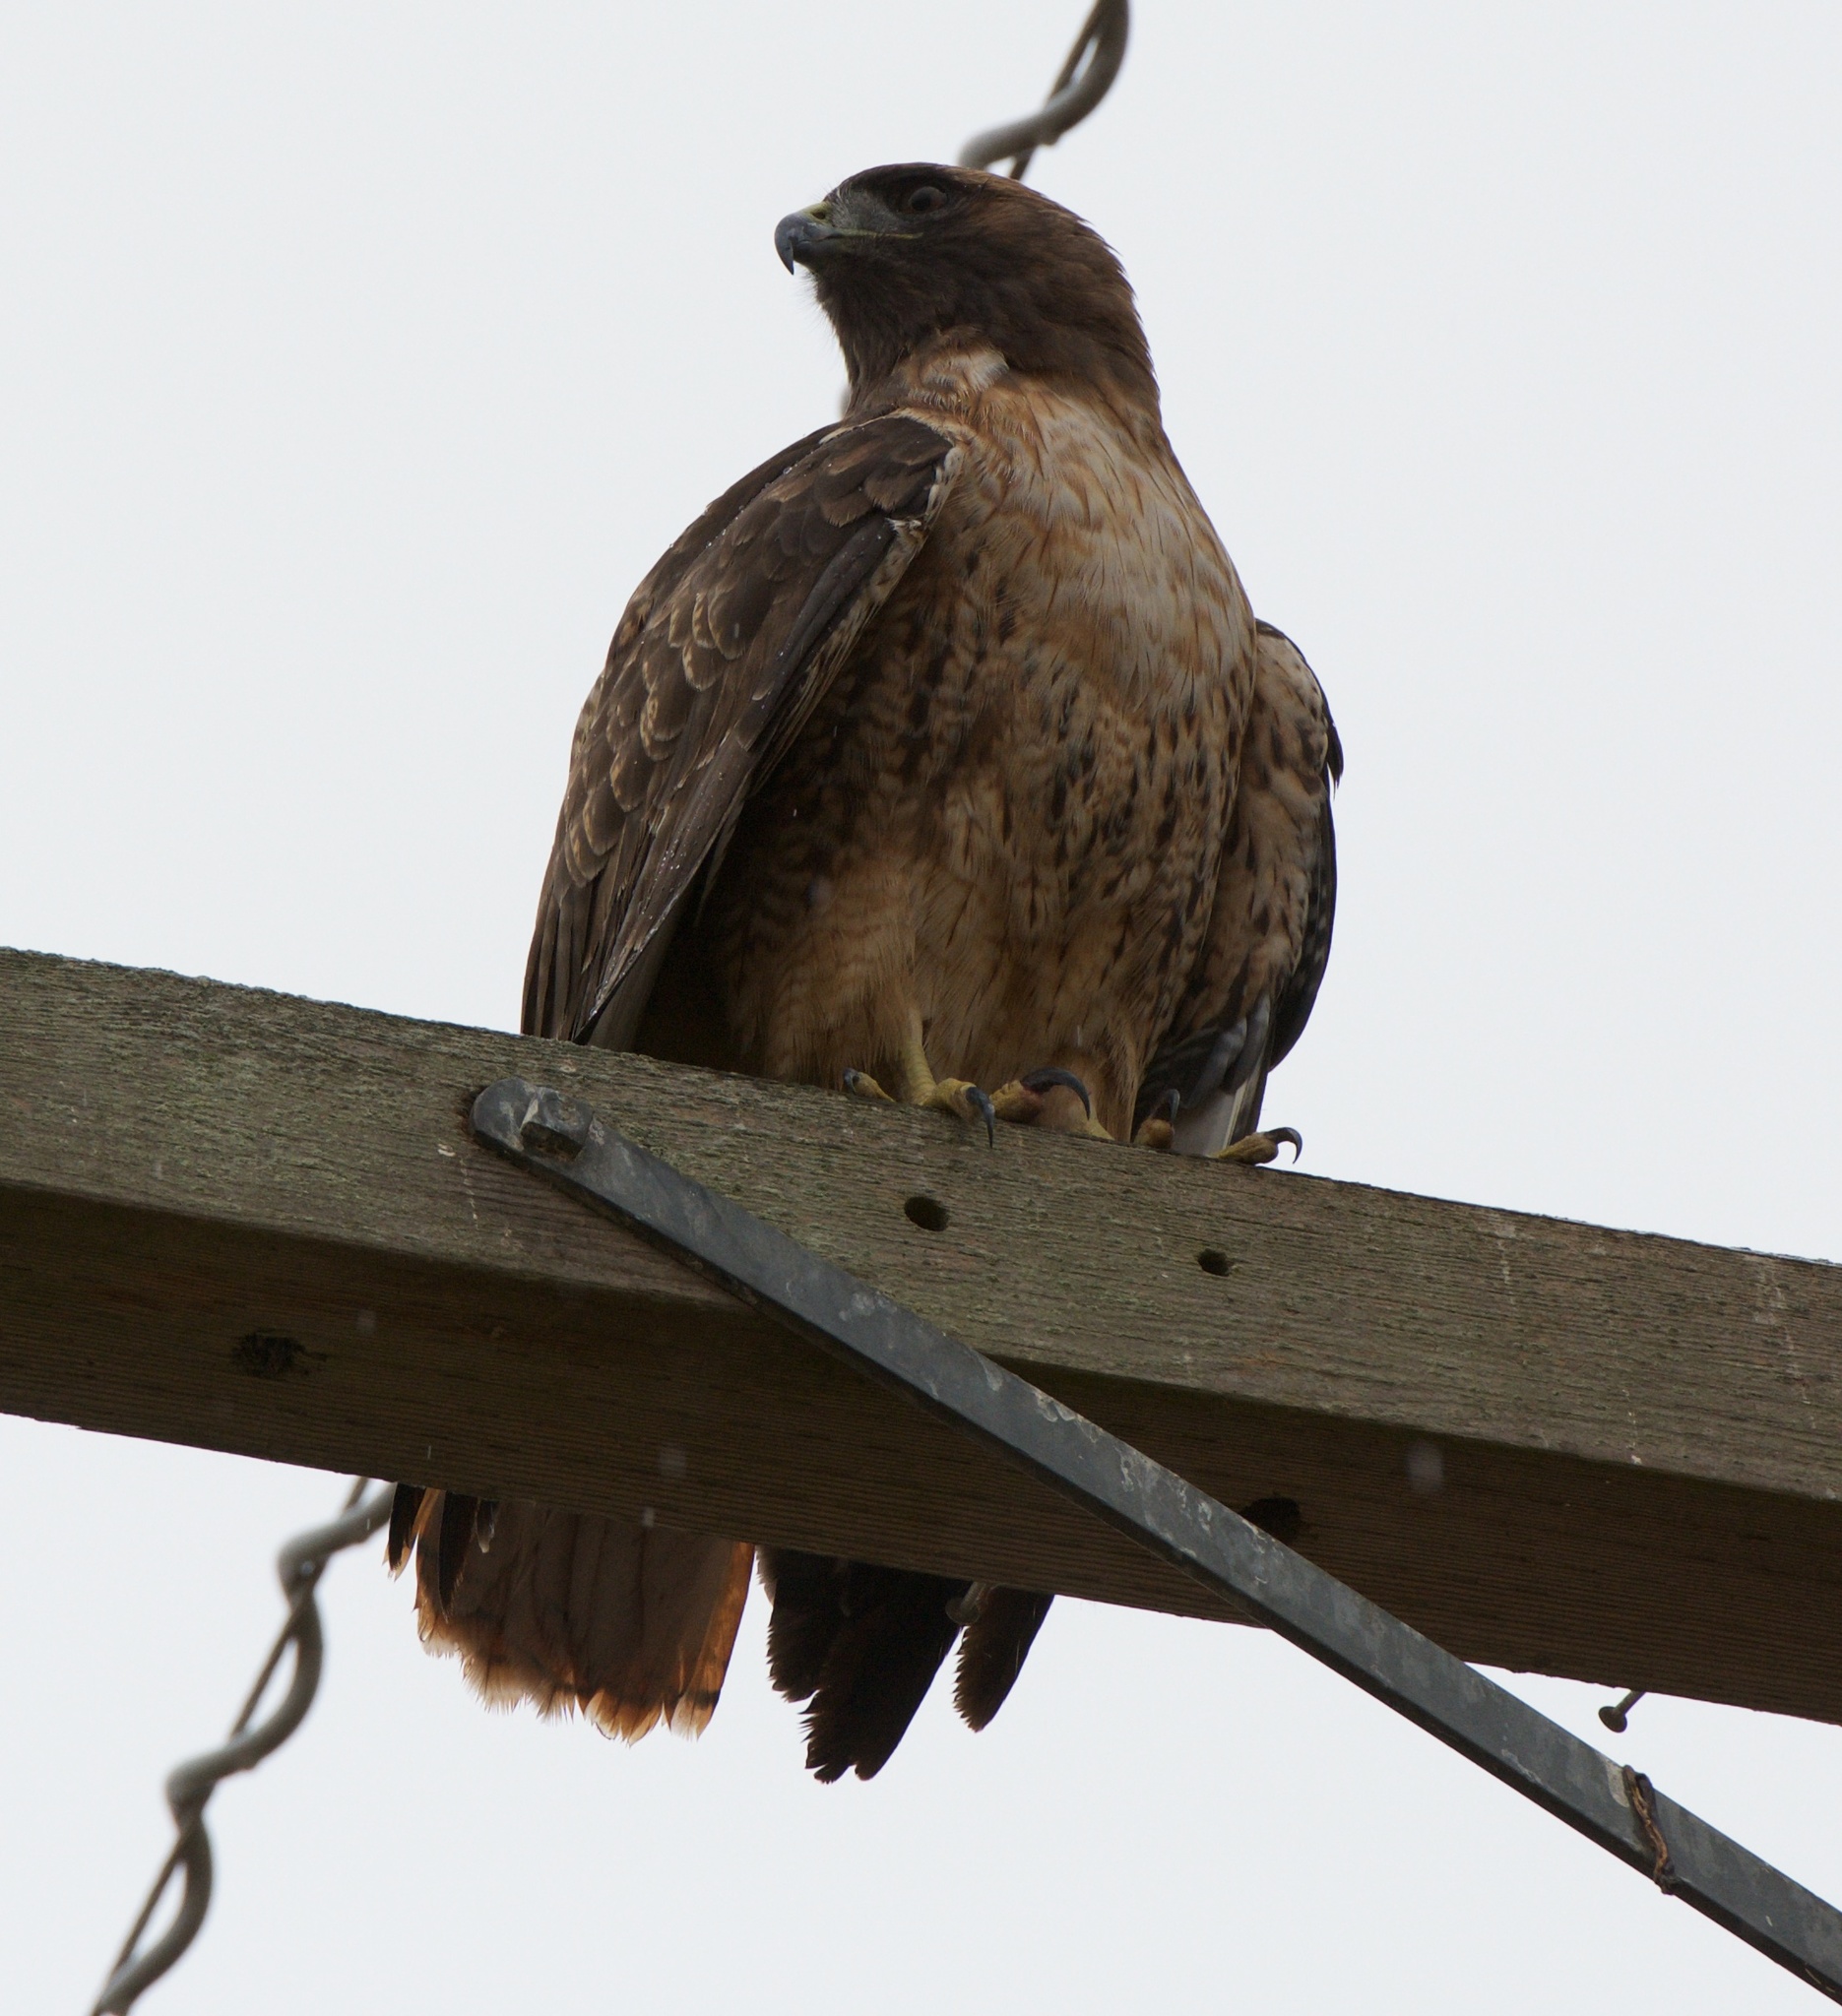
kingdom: Animalia
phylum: Chordata
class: Aves
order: Accipitriformes
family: Accipitridae
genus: Buteo
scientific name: Buteo jamaicensis
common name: Red-tailed hawk
